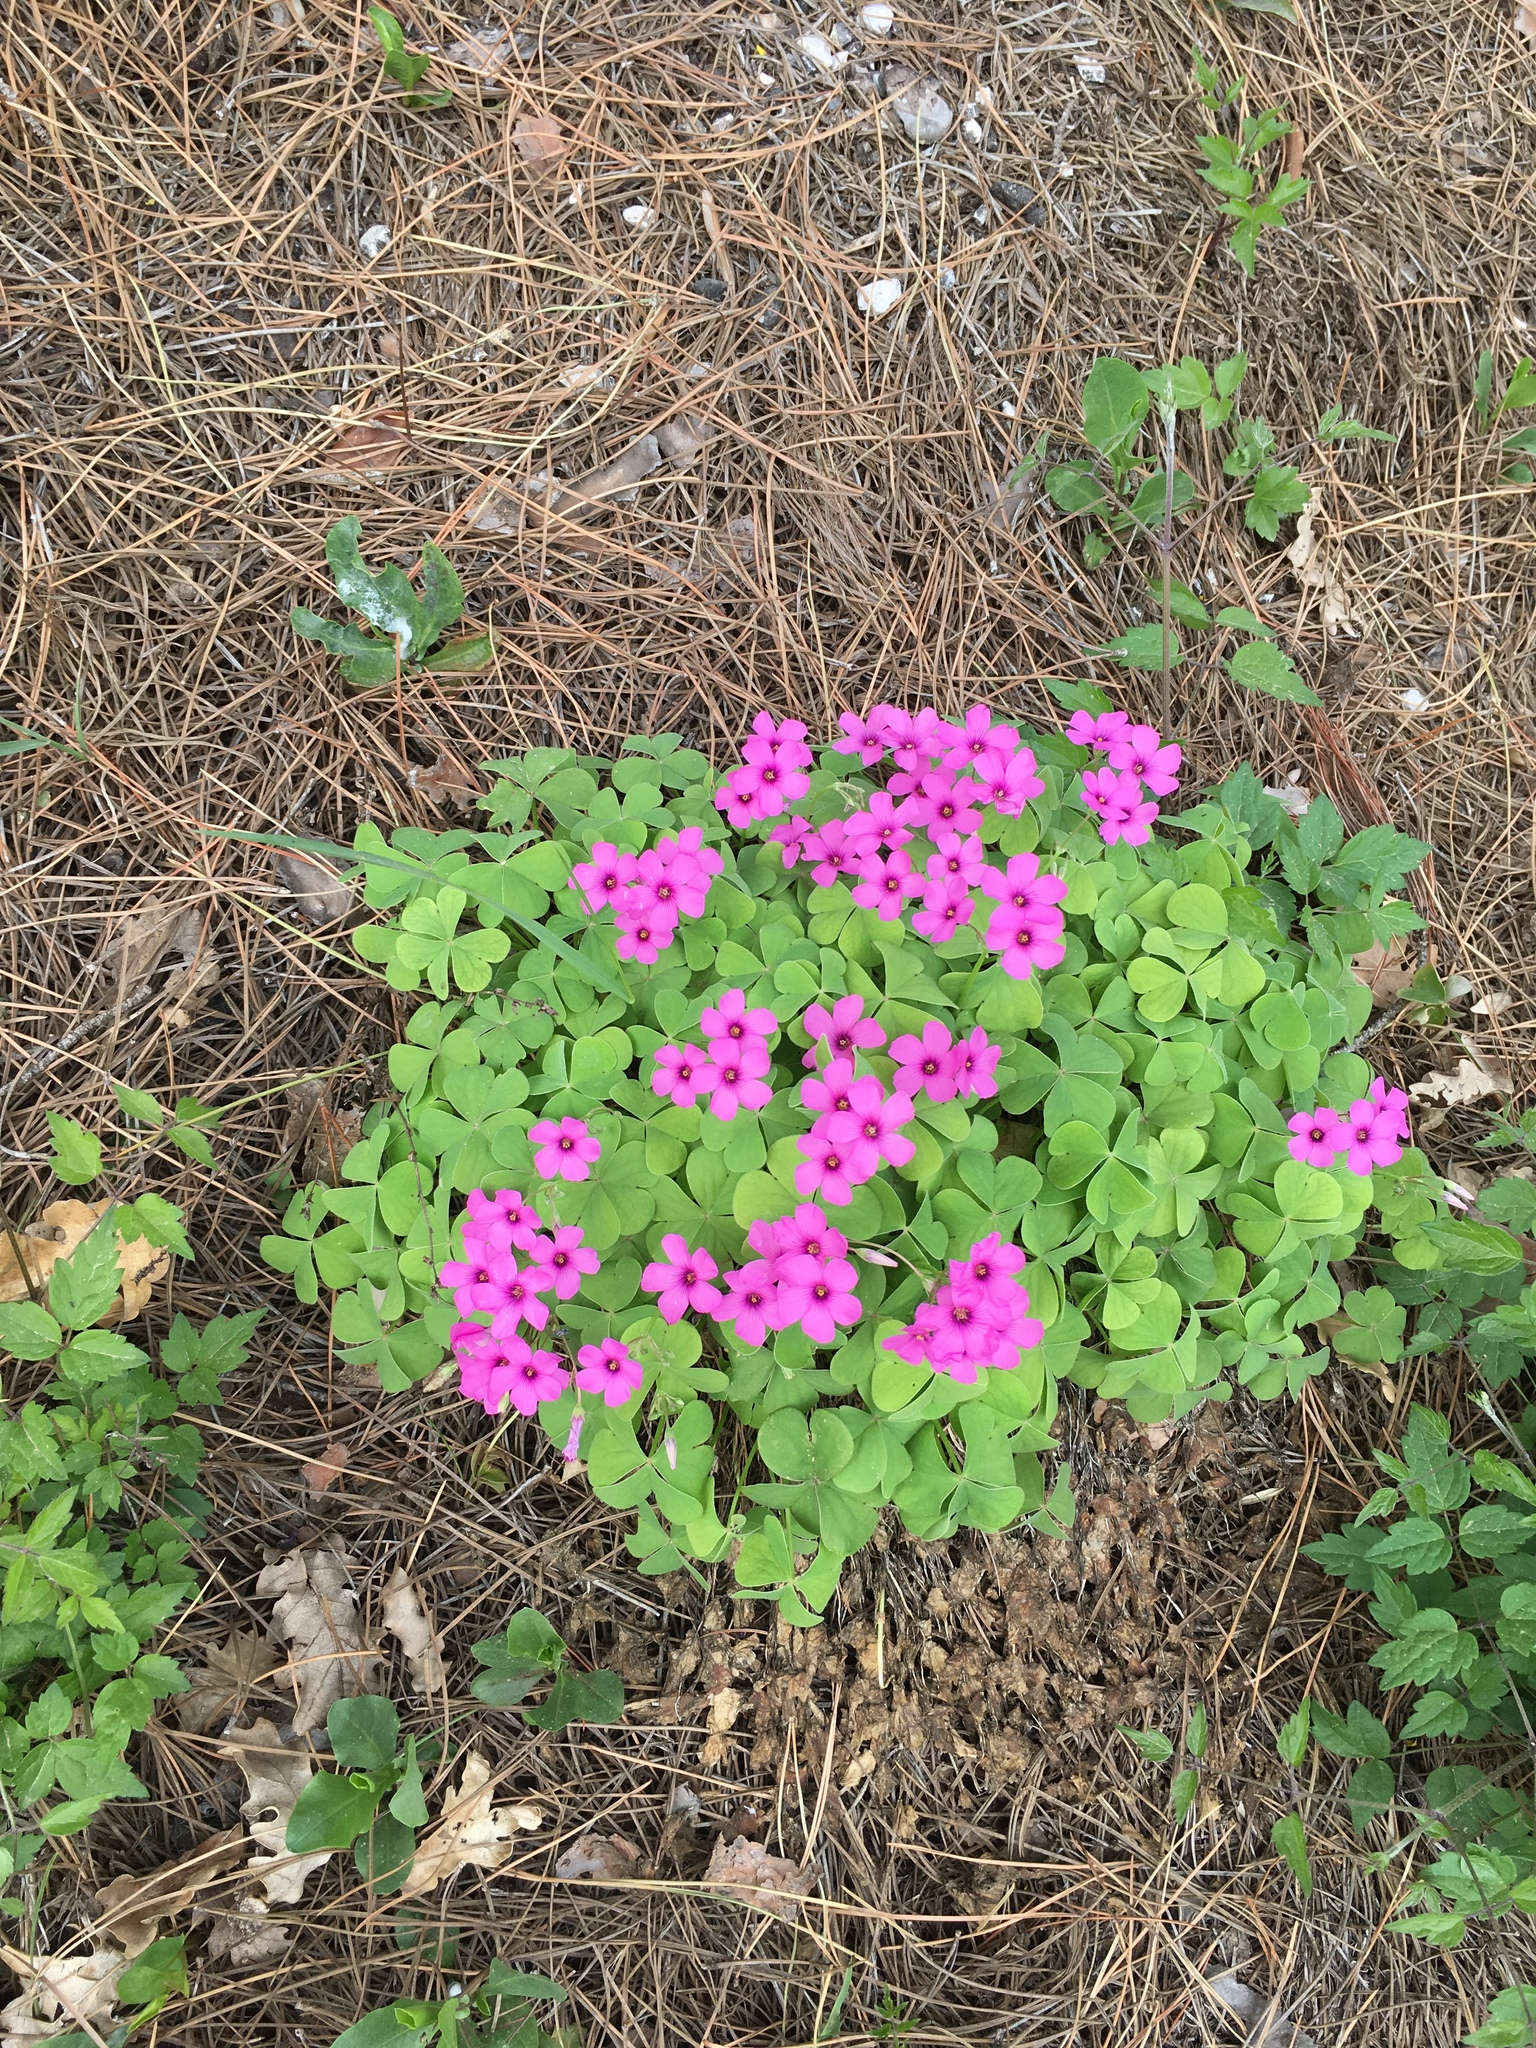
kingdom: Plantae
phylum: Tracheophyta
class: Magnoliopsida
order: Oxalidales
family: Oxalidaceae
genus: Oxalis
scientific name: Oxalis articulata
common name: Pink-sorrel
